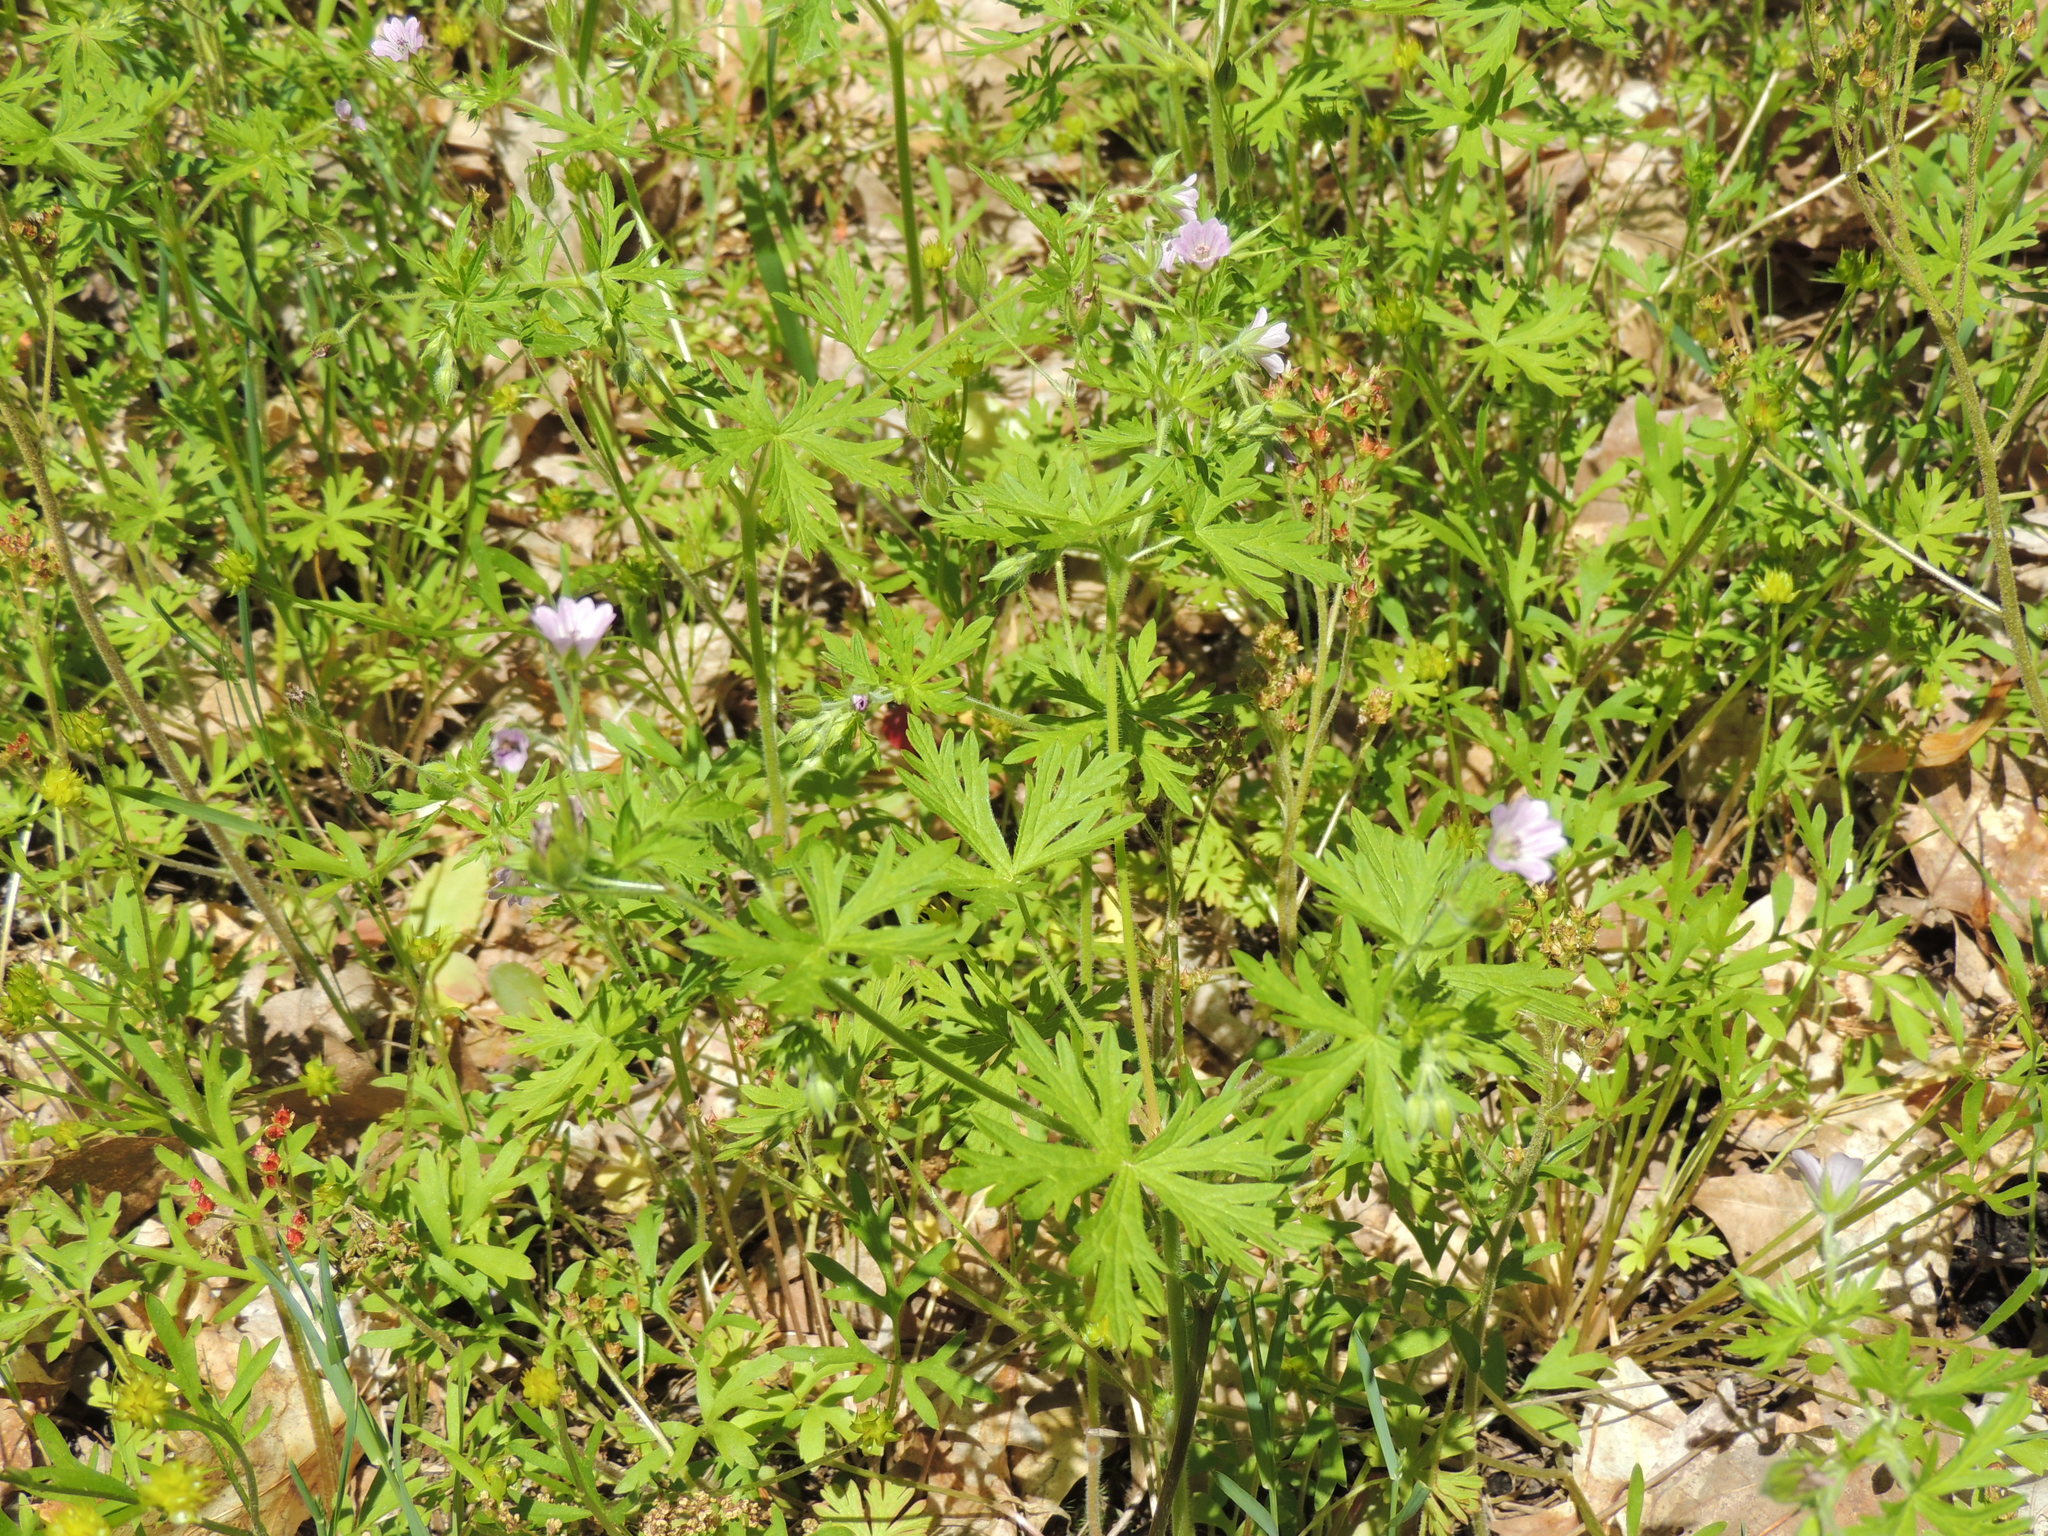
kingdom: Plantae
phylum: Tracheophyta
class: Magnoliopsida
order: Geraniales
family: Geraniaceae
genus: Geranium
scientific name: Geranium bicknellii
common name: Bicknell's cranesbill
